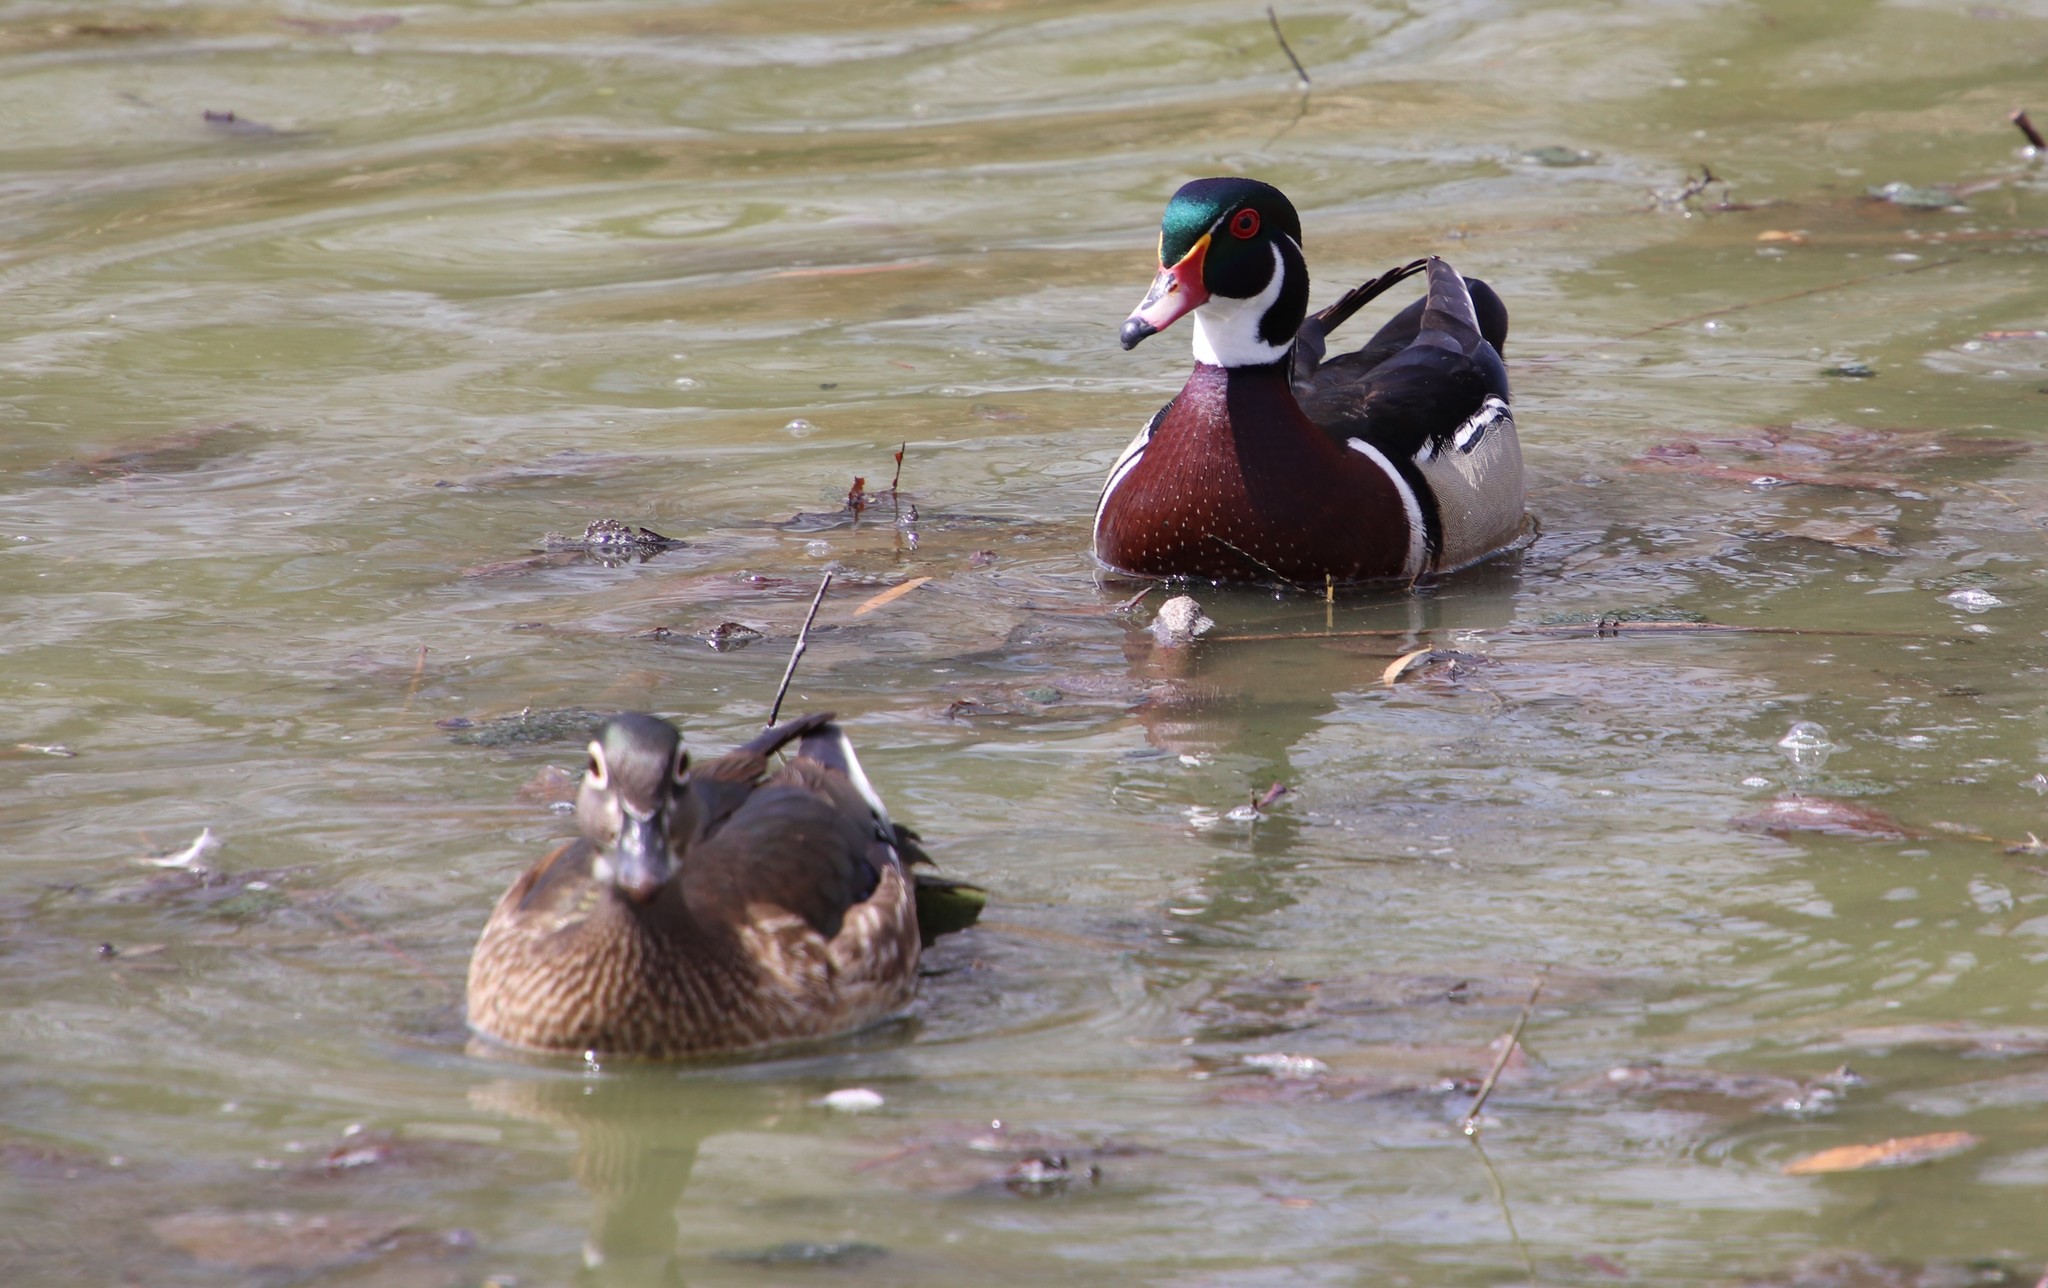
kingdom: Animalia
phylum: Chordata
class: Aves
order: Anseriformes
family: Anatidae
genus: Aix
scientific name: Aix sponsa
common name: Wood duck
